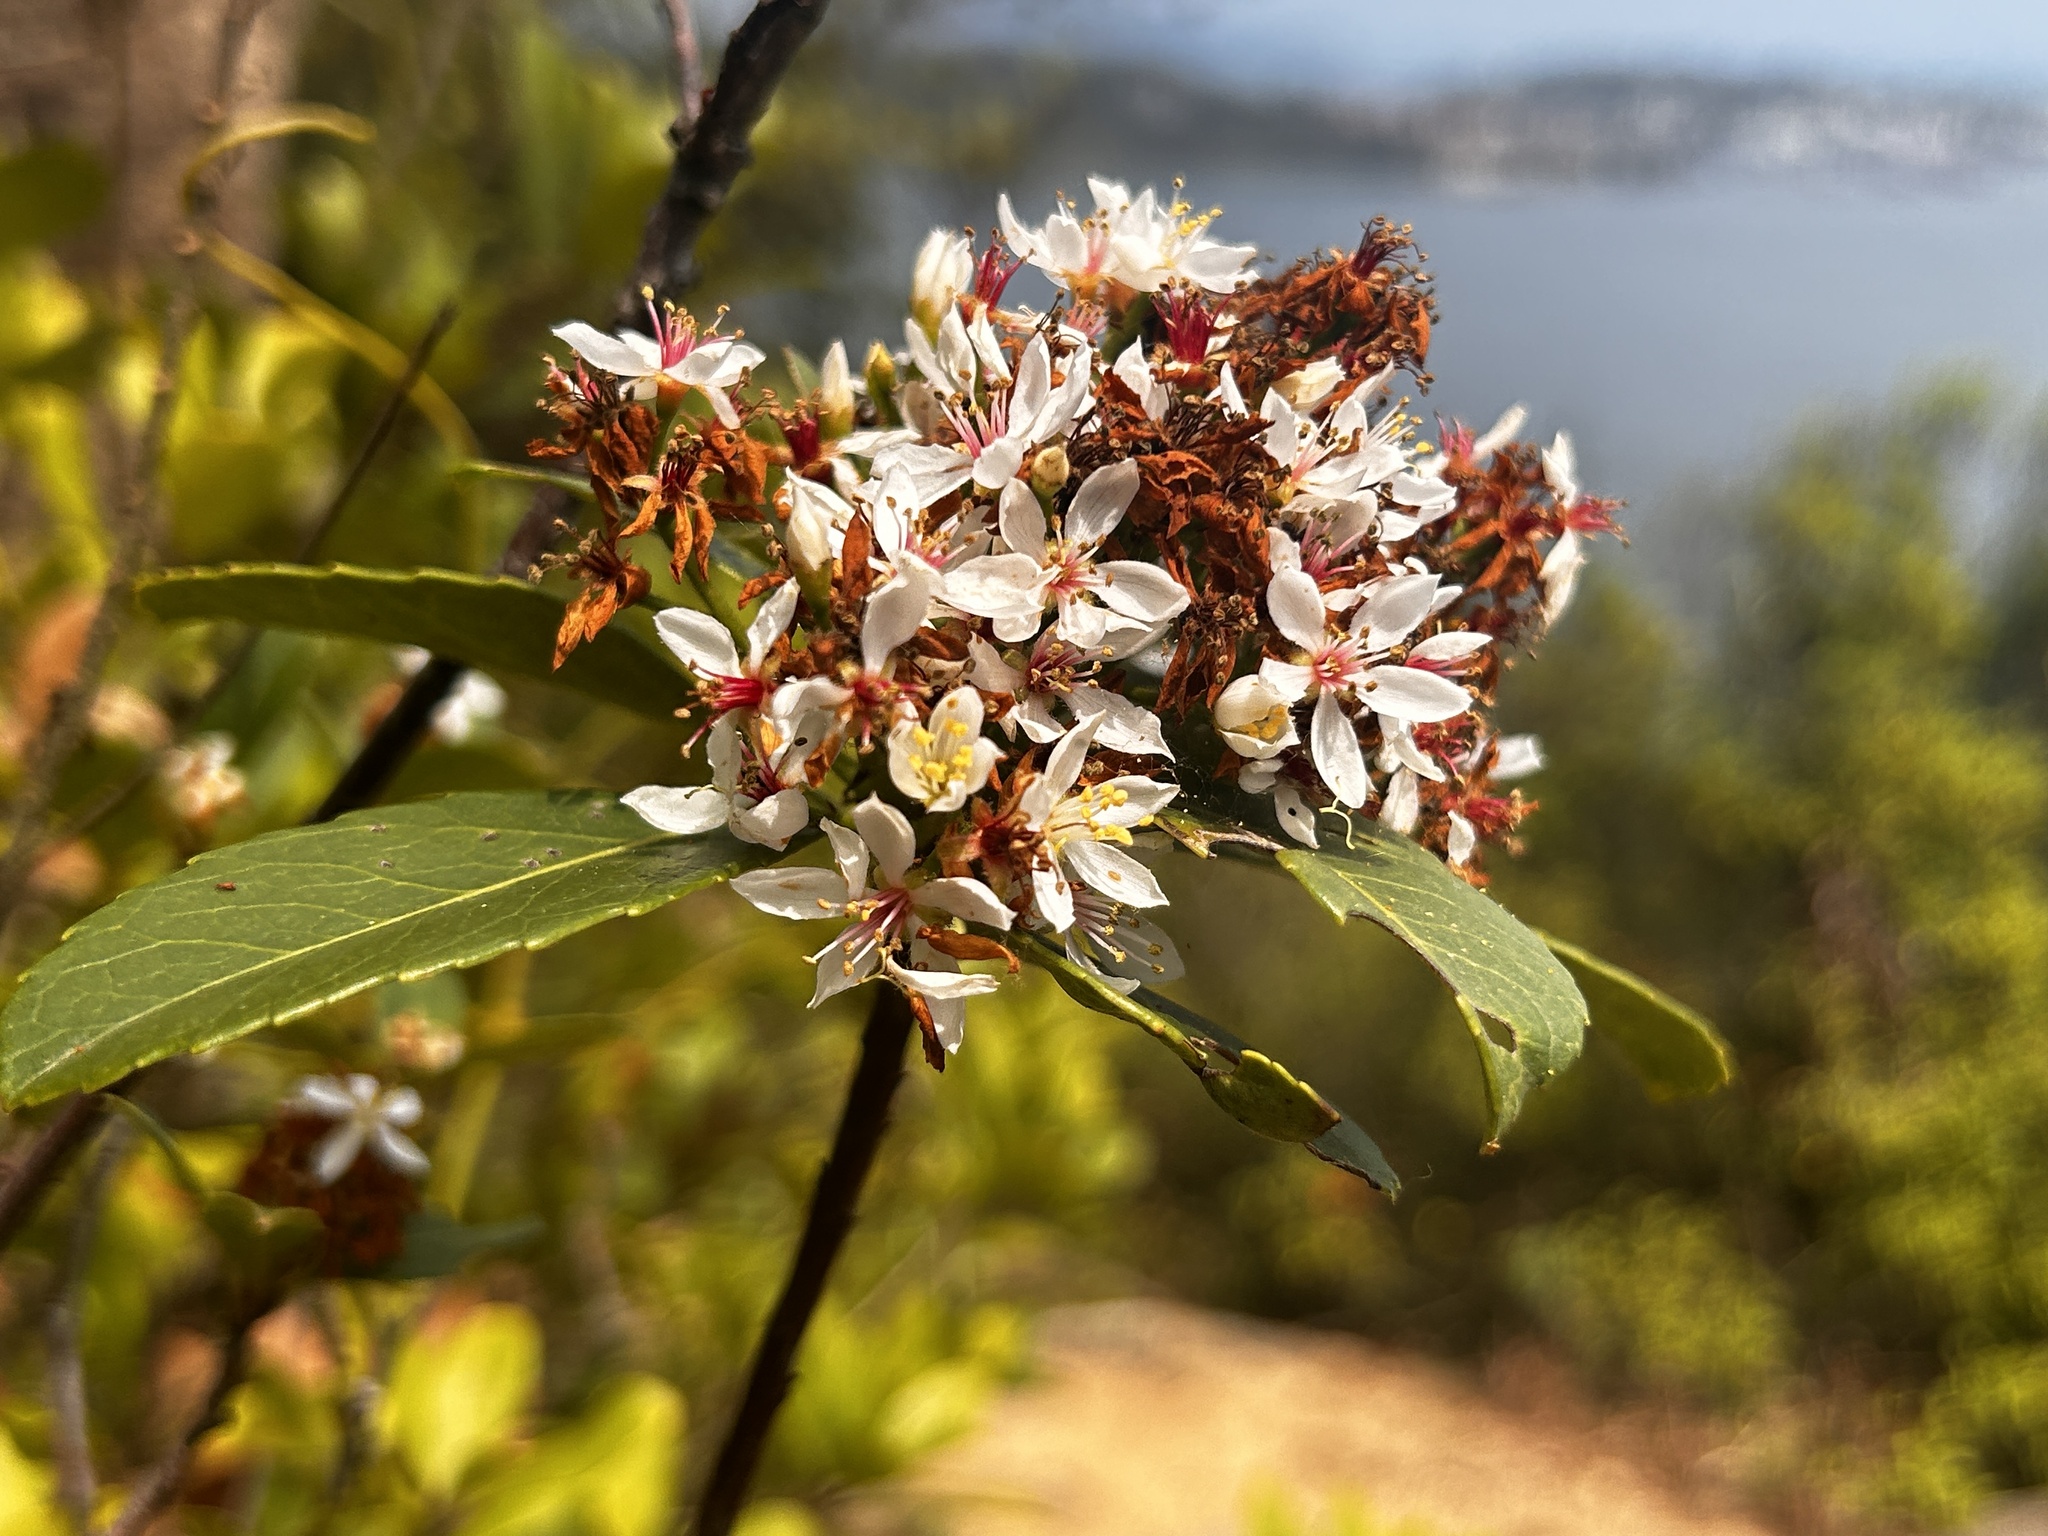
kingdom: Plantae
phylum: Tracheophyta
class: Magnoliopsida
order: Rosales
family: Rosaceae
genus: Rhaphiolepis
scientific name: Rhaphiolepis indica
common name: India-hawthorn
